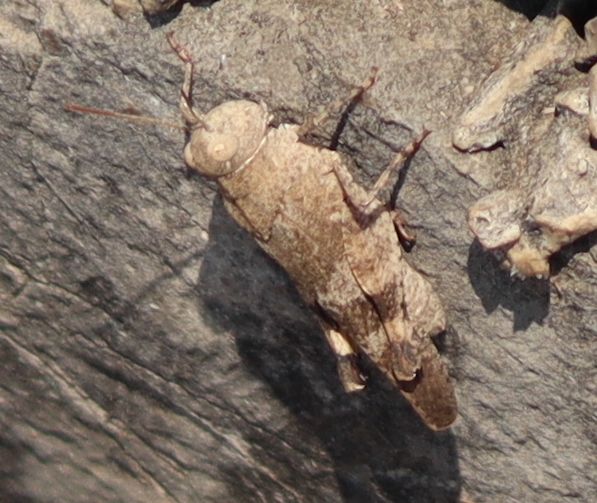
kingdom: Animalia
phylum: Arthropoda
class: Insecta
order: Orthoptera
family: Acrididae
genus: Oedipoda
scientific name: Oedipoda caerulescens
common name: Blue-winged grasshopper
